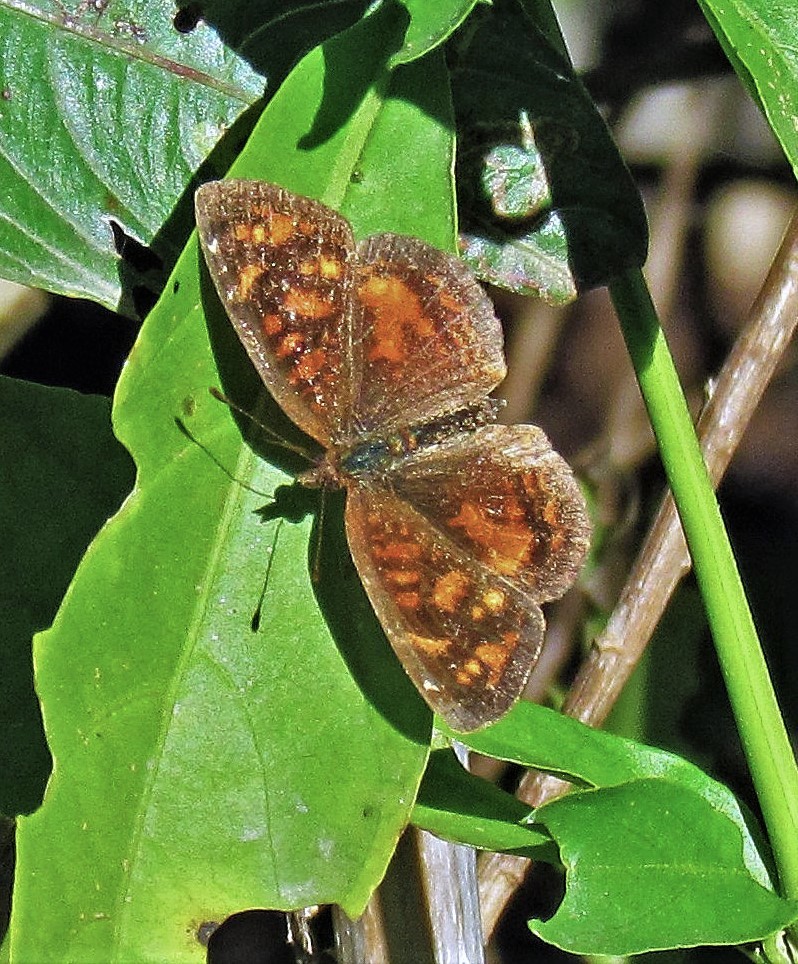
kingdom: Animalia
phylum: Arthropoda
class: Insecta
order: Lepidoptera
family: Nymphalidae
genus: Ortilia
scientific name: Ortilia velica
